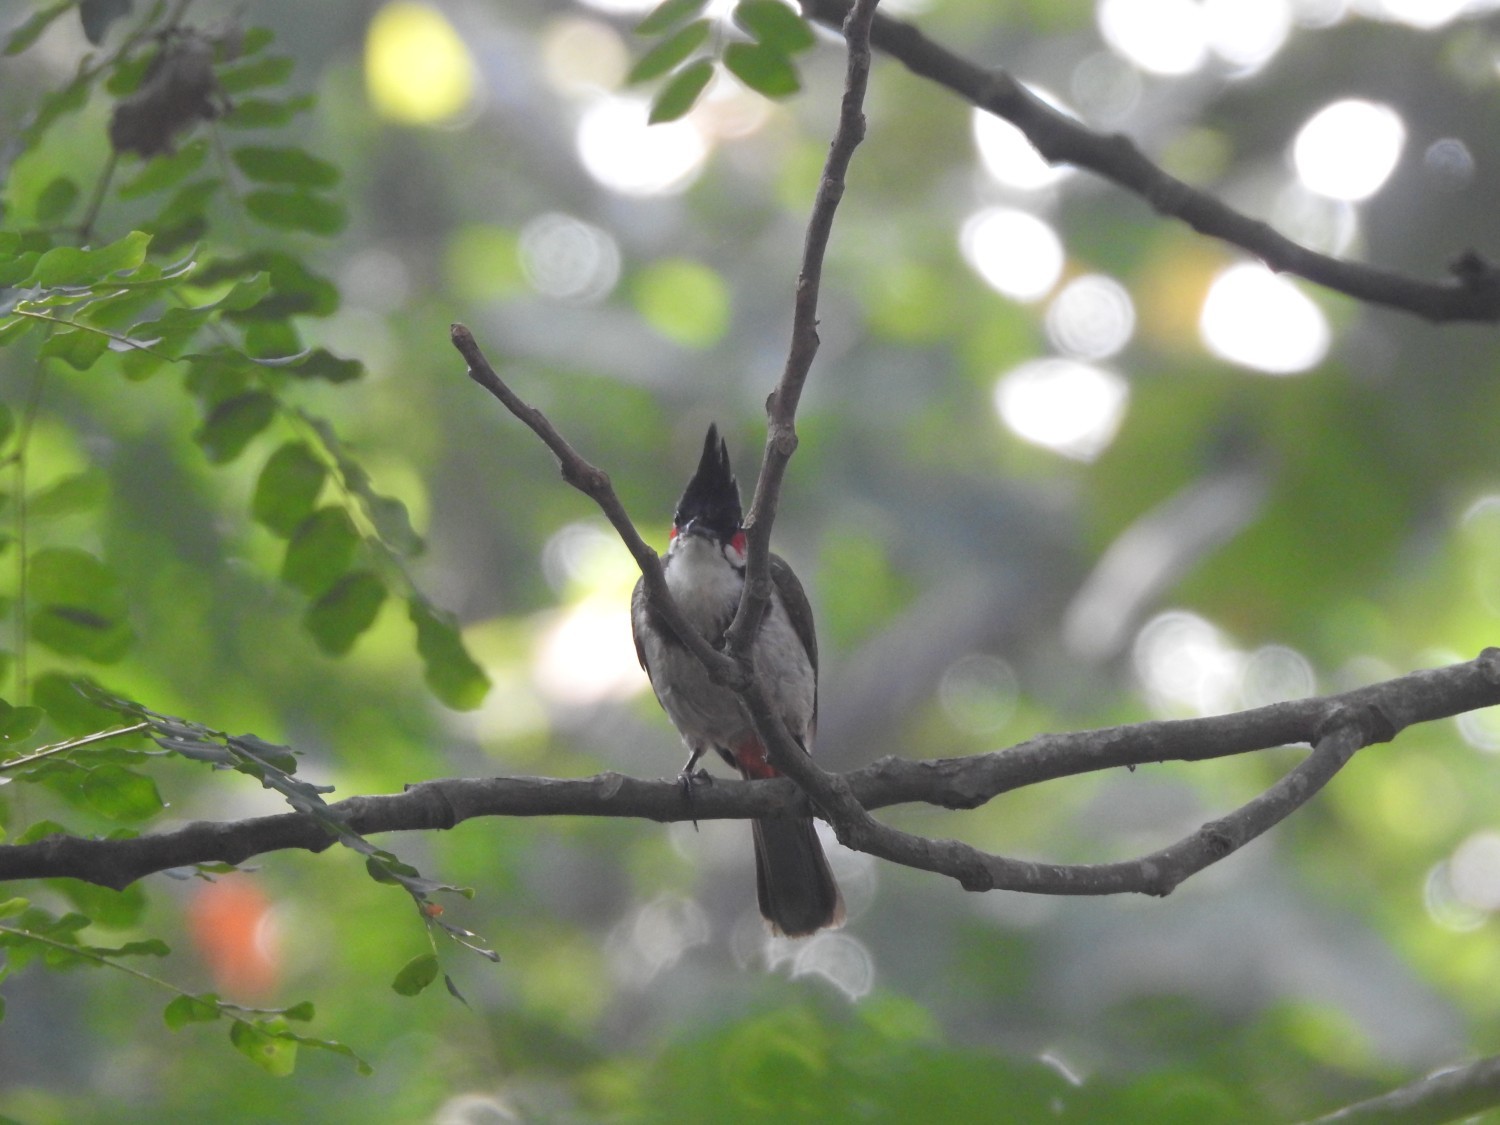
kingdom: Animalia
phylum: Chordata
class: Aves
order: Passeriformes
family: Pycnonotidae
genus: Pycnonotus
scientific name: Pycnonotus jocosus
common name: Red-whiskered bulbul
